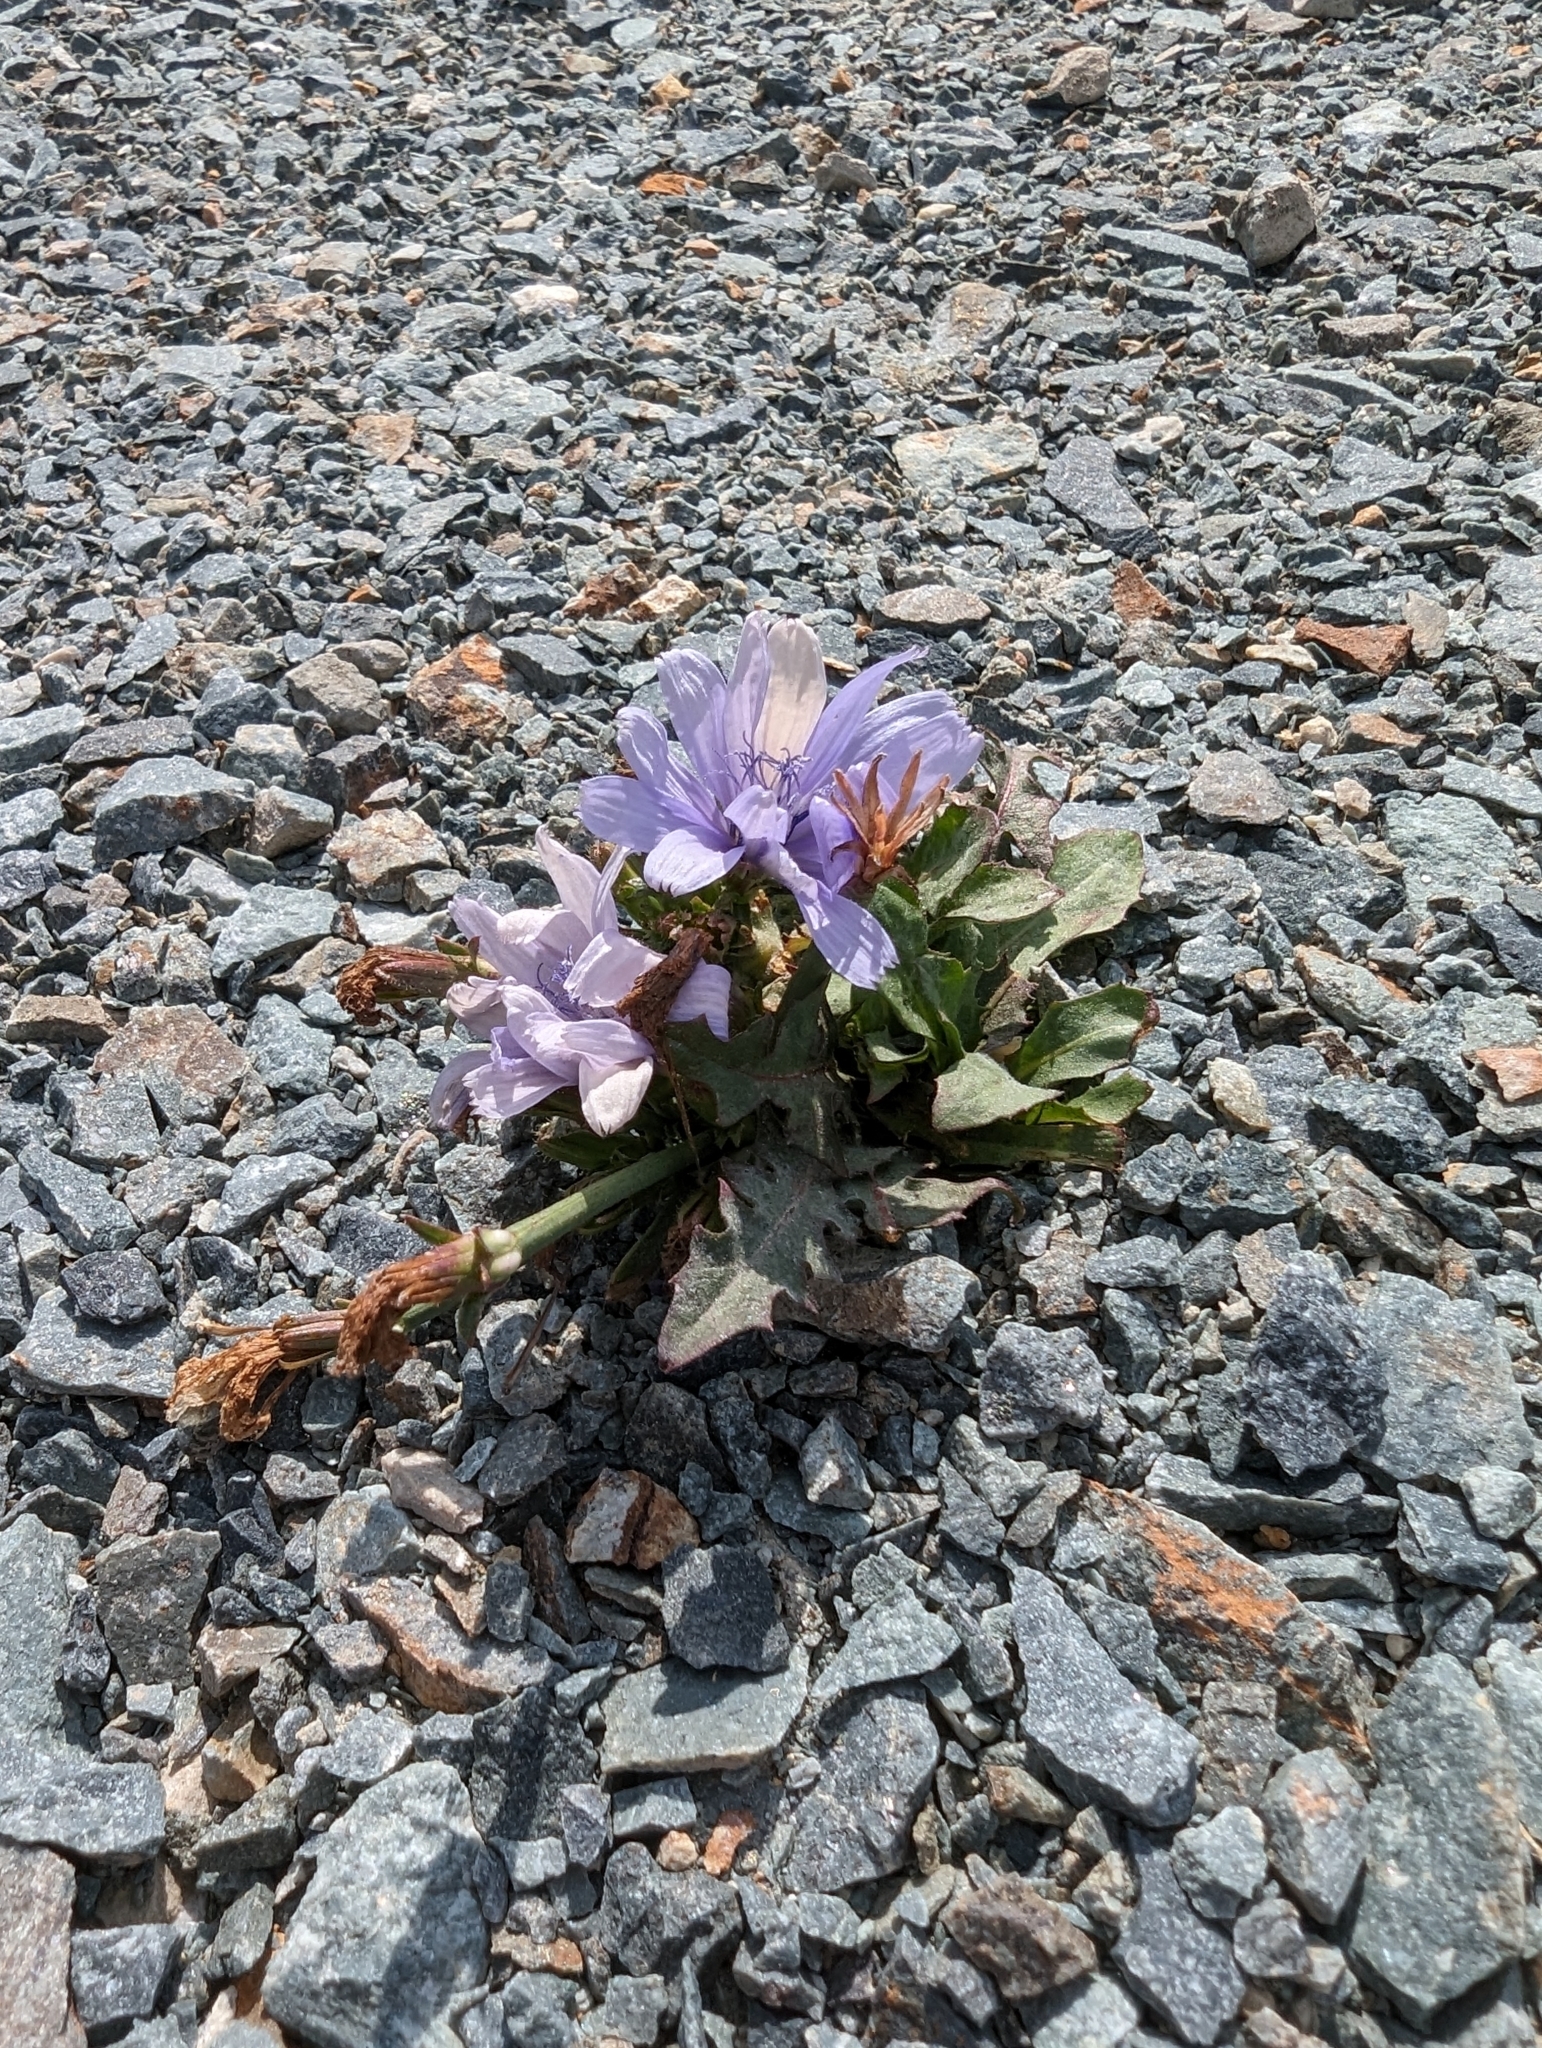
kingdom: Plantae
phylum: Tracheophyta
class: Magnoliopsida
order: Asterales
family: Asteraceae
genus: Cichorium
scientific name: Cichorium intybus
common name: Chicory
